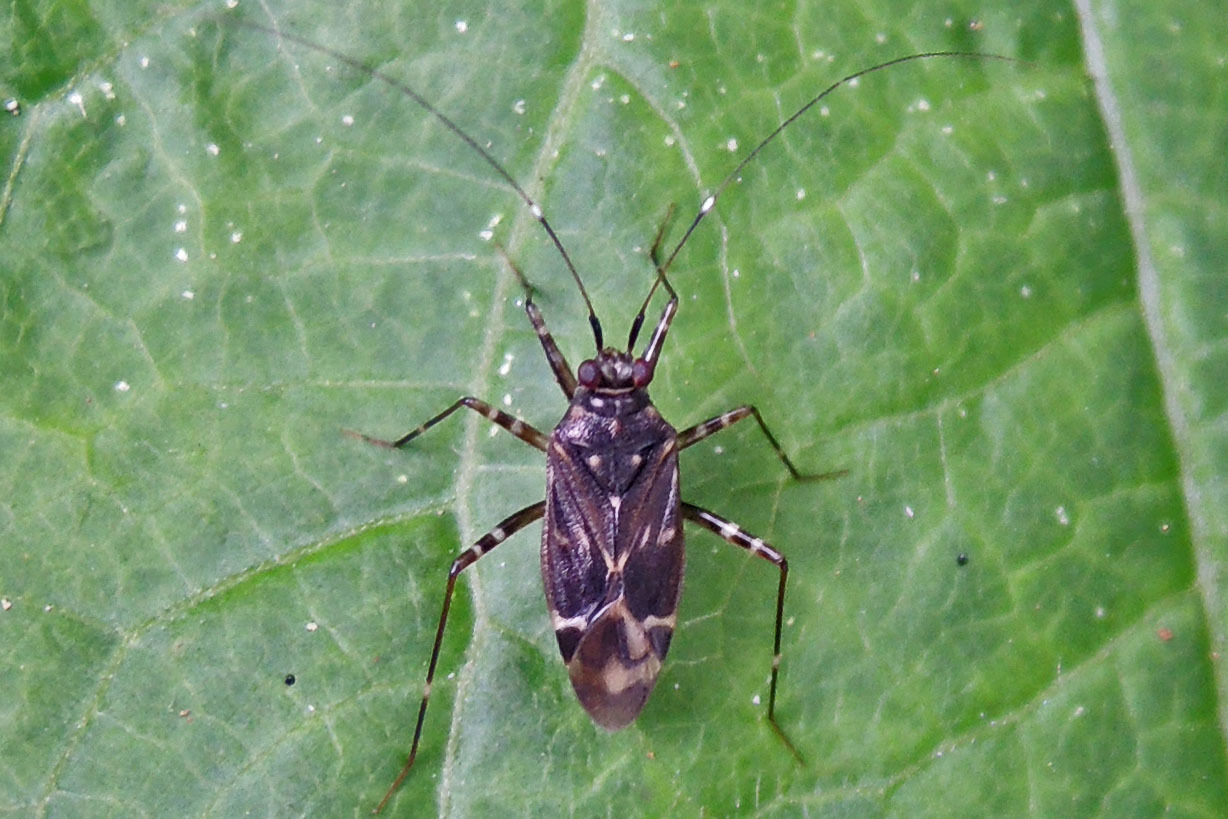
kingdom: Animalia
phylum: Arthropoda
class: Insecta
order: Hemiptera
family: Miridae
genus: Cylapus
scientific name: Cylapus tenuicornis
